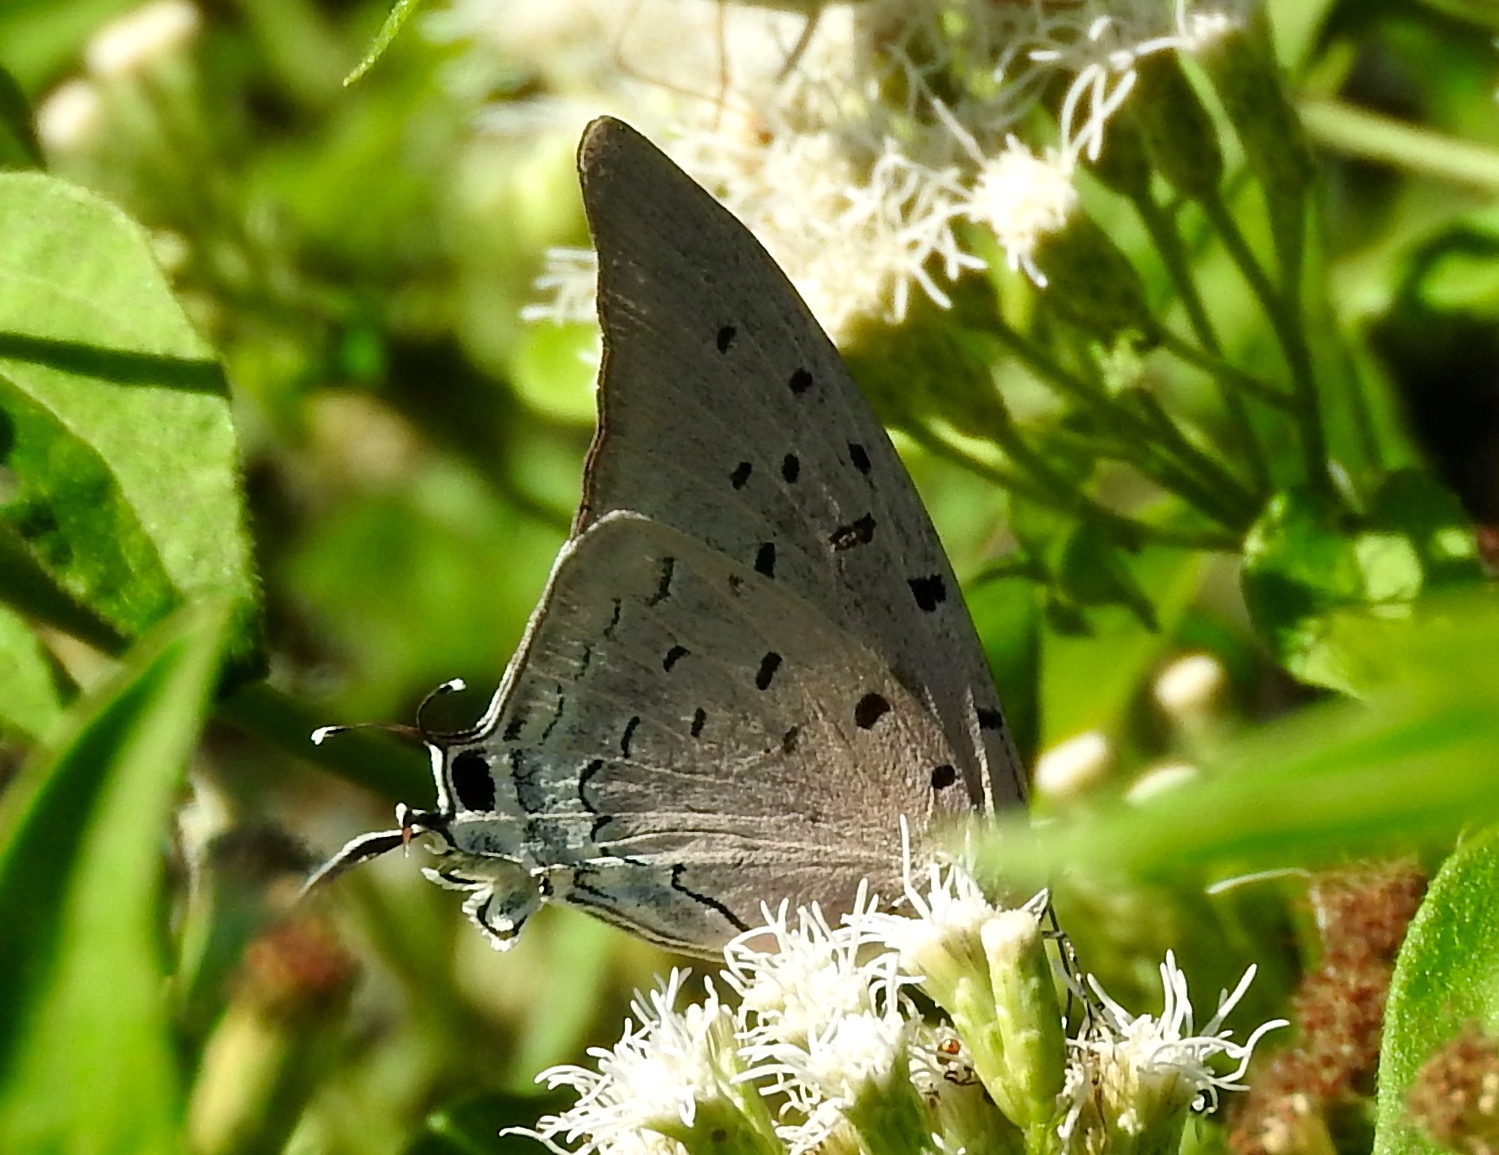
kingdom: Animalia
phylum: Arthropoda
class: Insecta
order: Lepidoptera
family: Lycaenidae
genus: Pseudolycaena
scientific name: Pseudolycaena damo
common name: Sky-blue hairstreak
